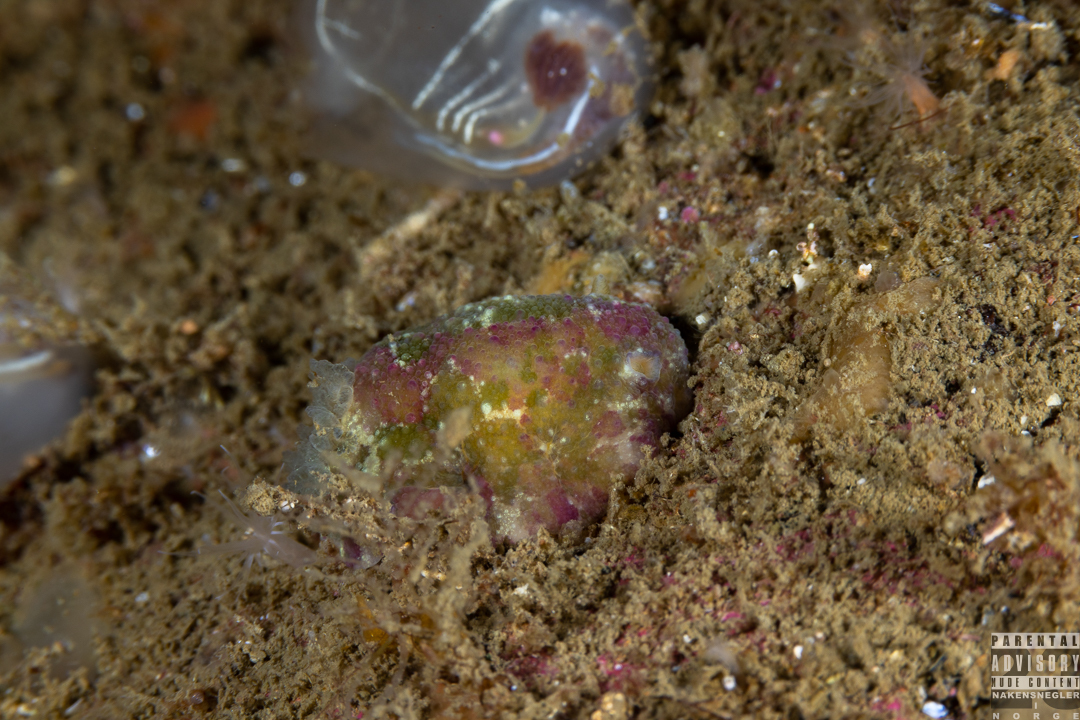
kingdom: Animalia
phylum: Mollusca
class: Gastropoda
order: Nudibranchia
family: Dorididae
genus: Doris
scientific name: Doris pseudoargus
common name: Sea lemon
